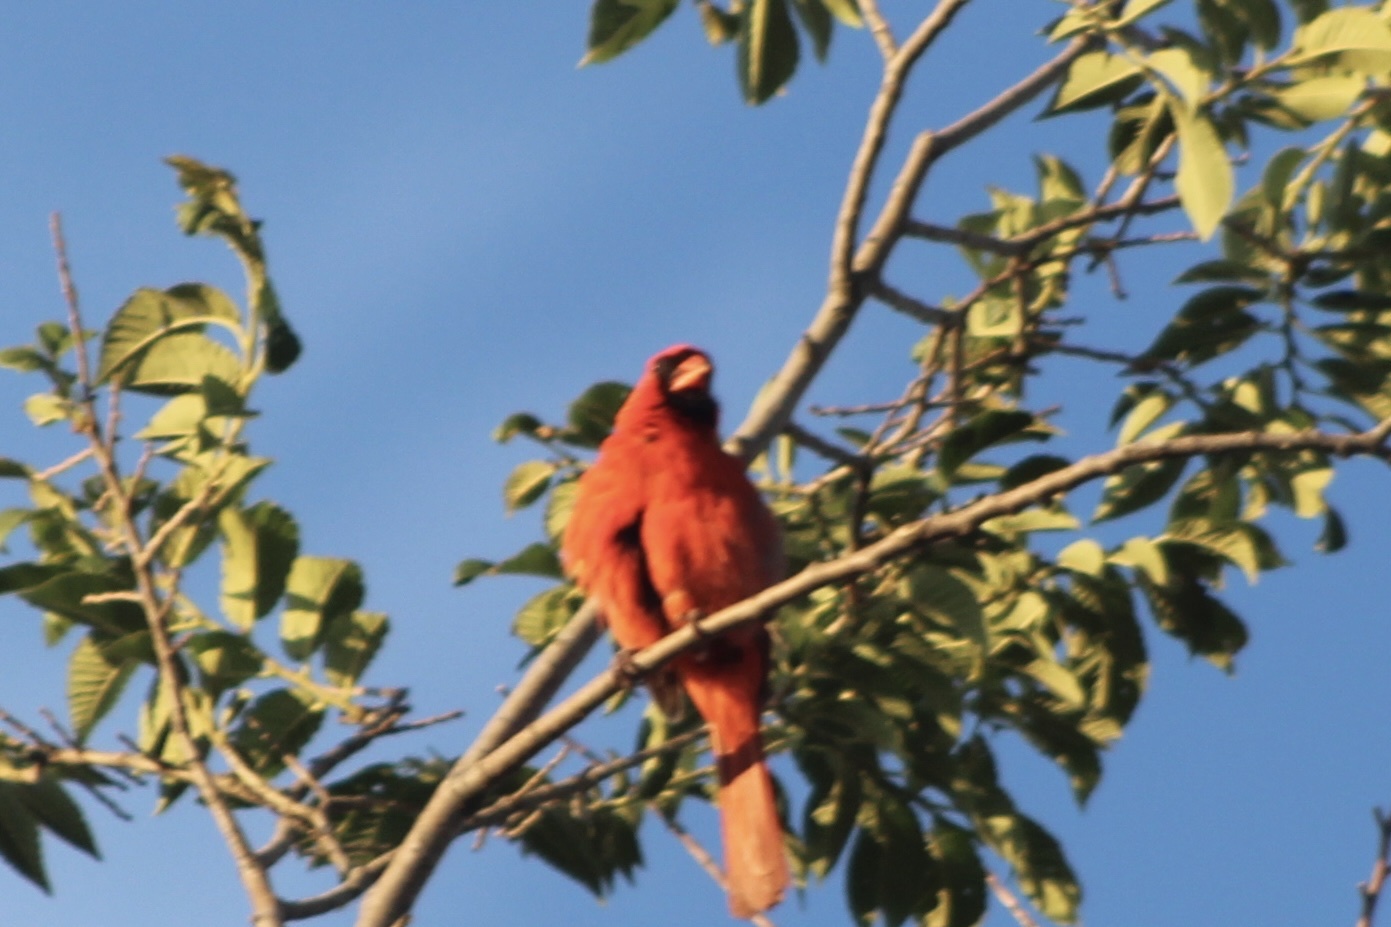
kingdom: Animalia
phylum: Chordata
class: Aves
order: Passeriformes
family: Cardinalidae
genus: Cardinalis
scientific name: Cardinalis cardinalis
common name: Northern cardinal
